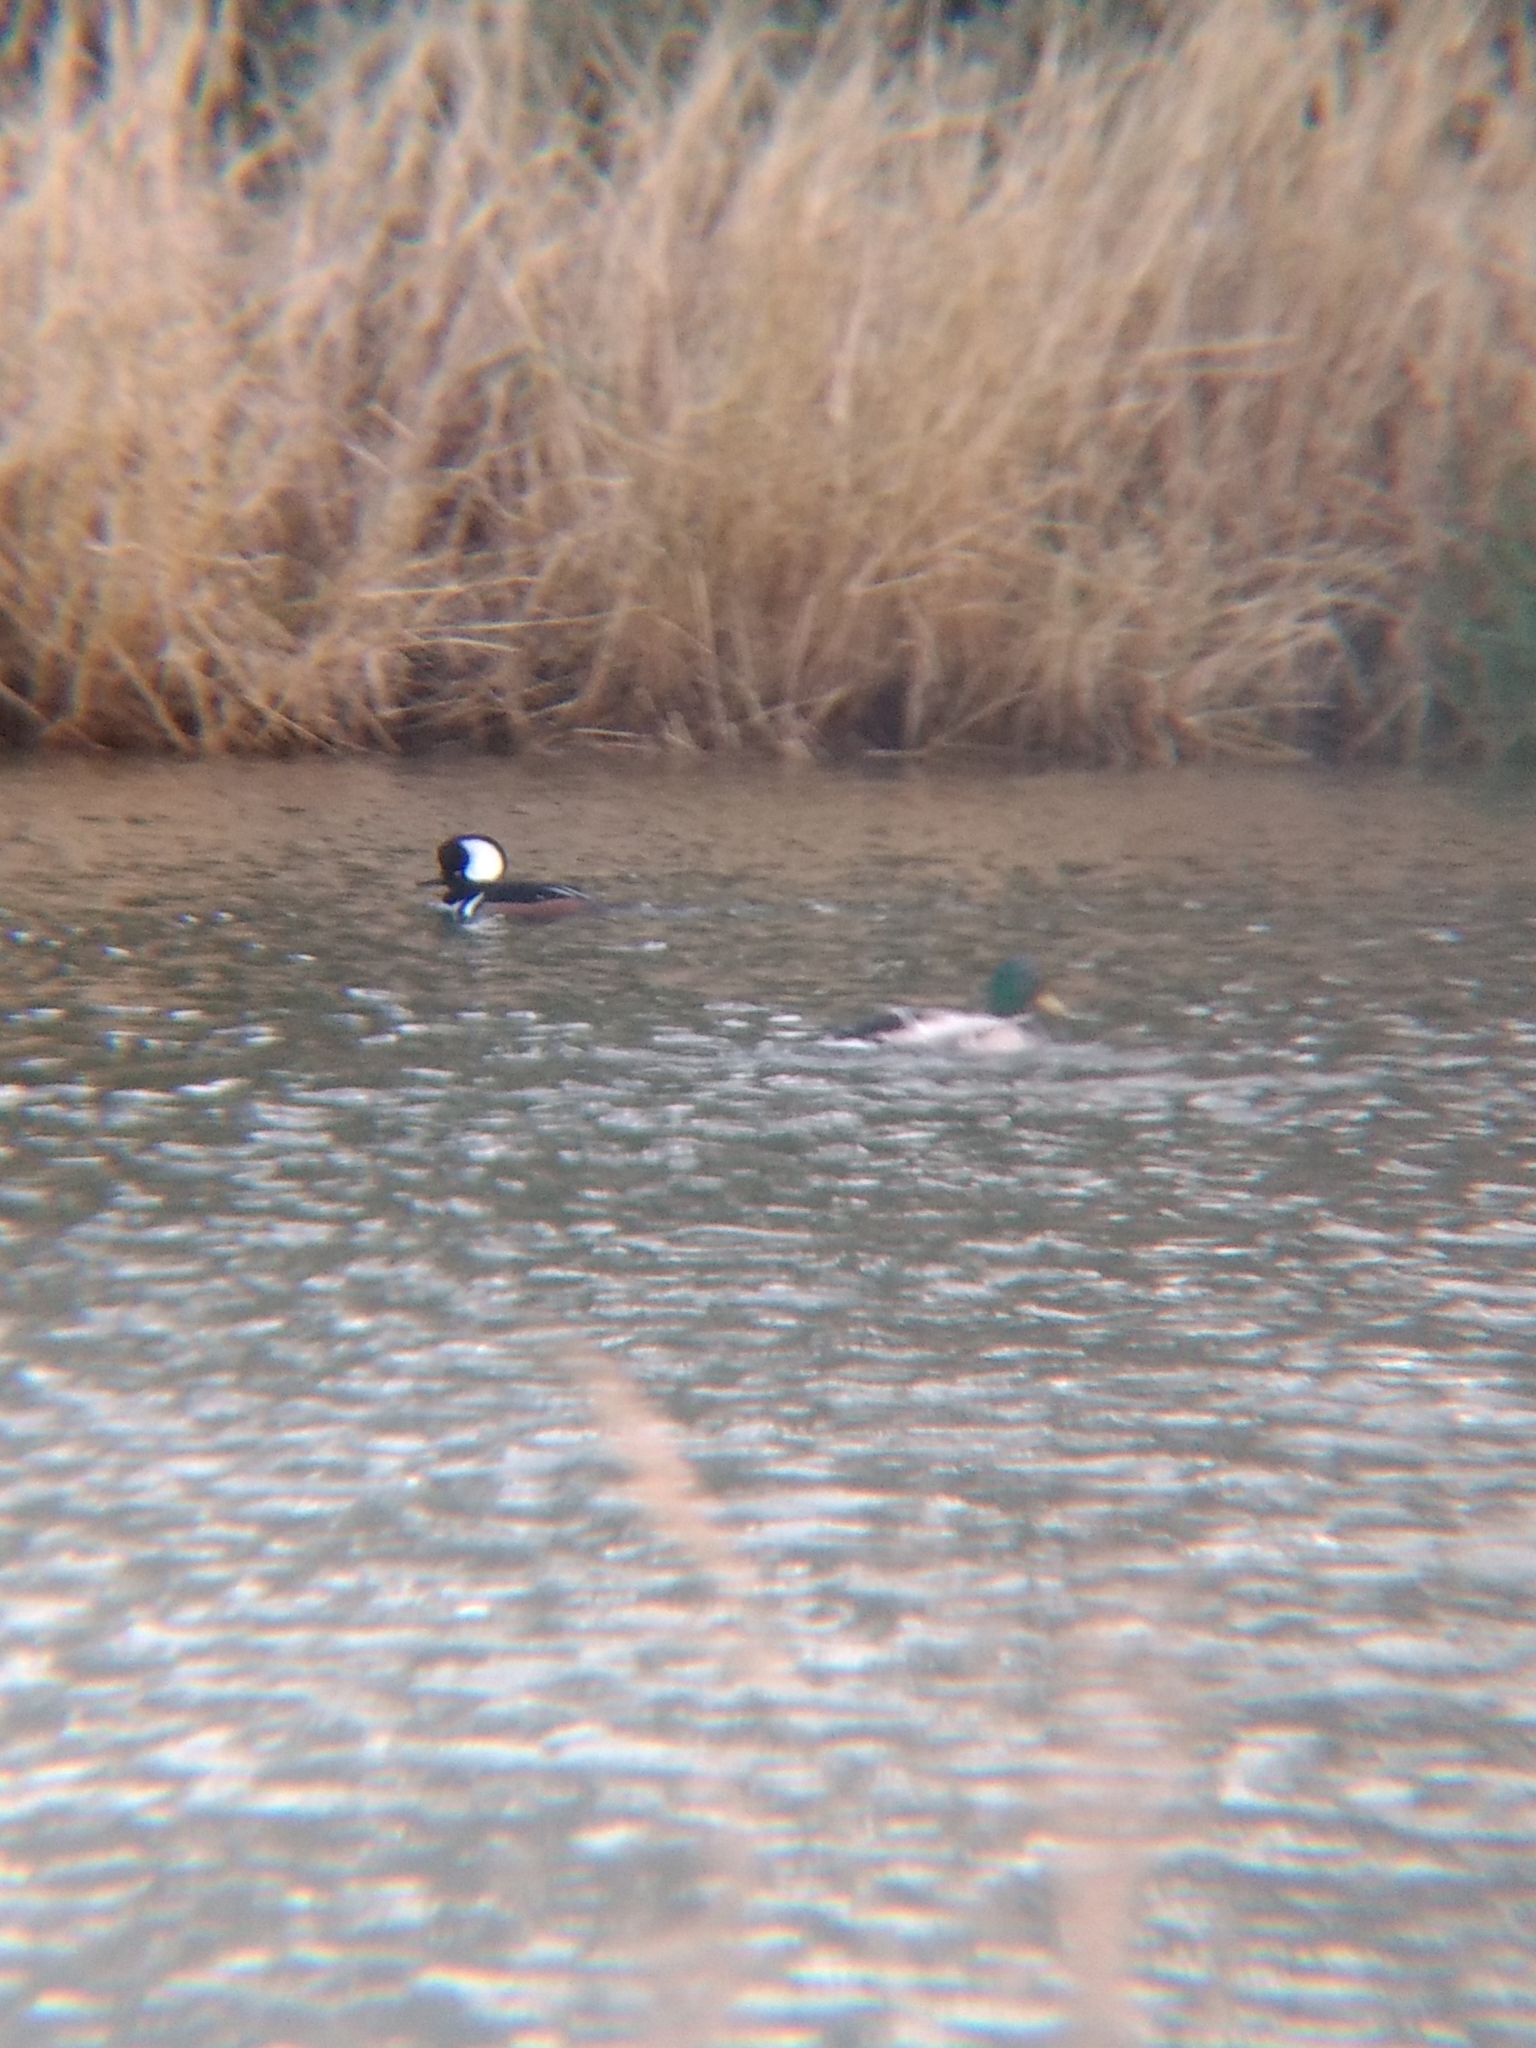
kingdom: Animalia
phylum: Chordata
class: Aves
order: Anseriformes
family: Anatidae
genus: Lophodytes
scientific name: Lophodytes cucullatus
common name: Hooded merganser
